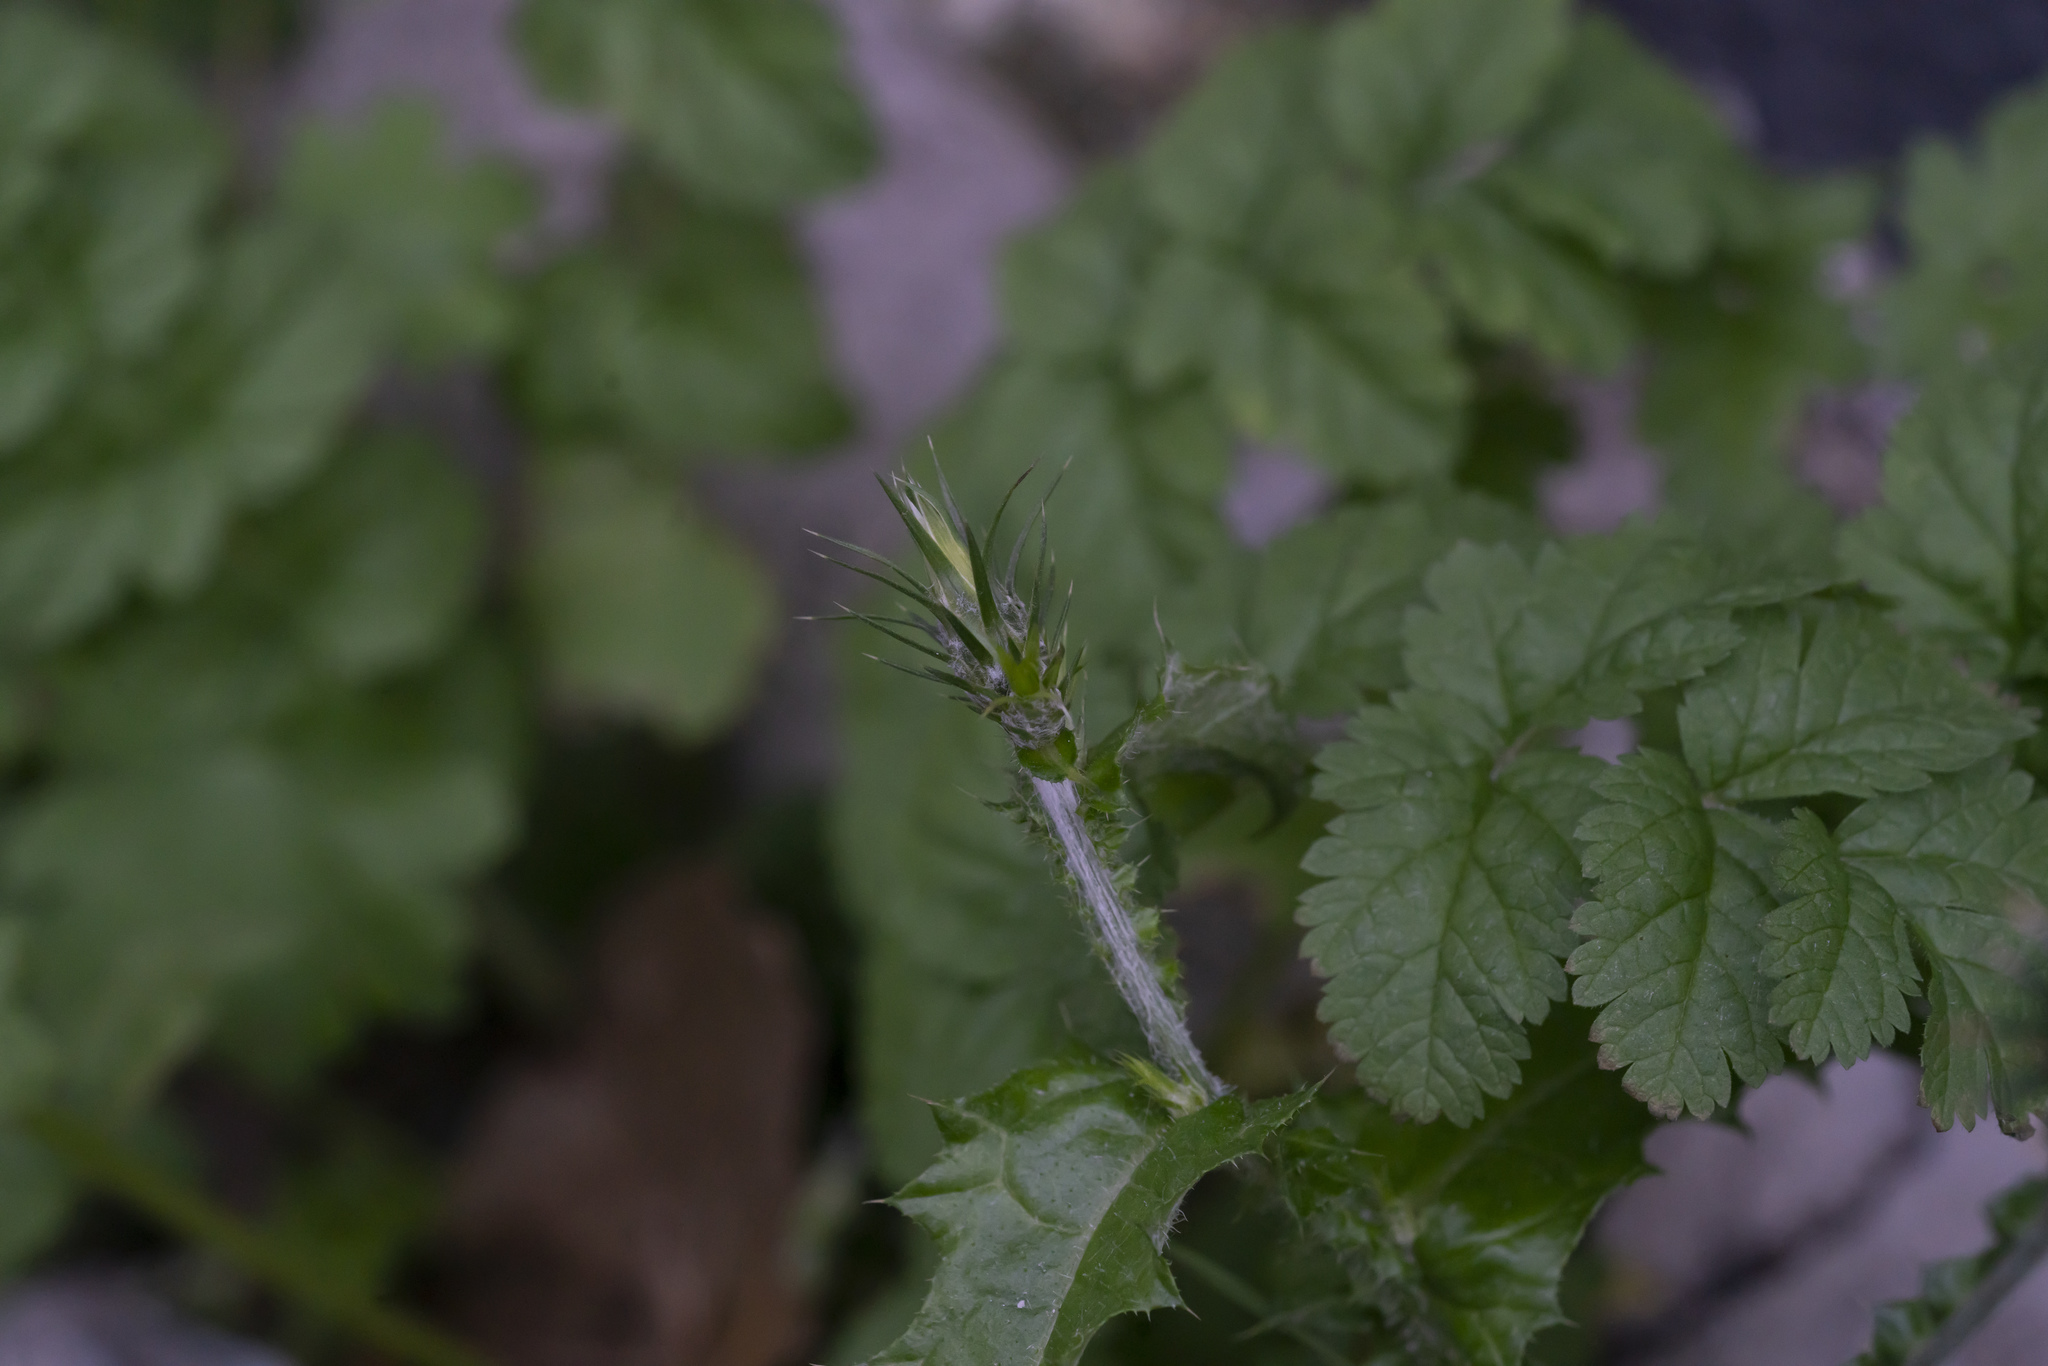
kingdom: Plantae
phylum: Tracheophyta
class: Magnoliopsida
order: Asterales
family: Asteraceae
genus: Carduus
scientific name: Carduus pycnocephalus
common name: Plymouth thistle
